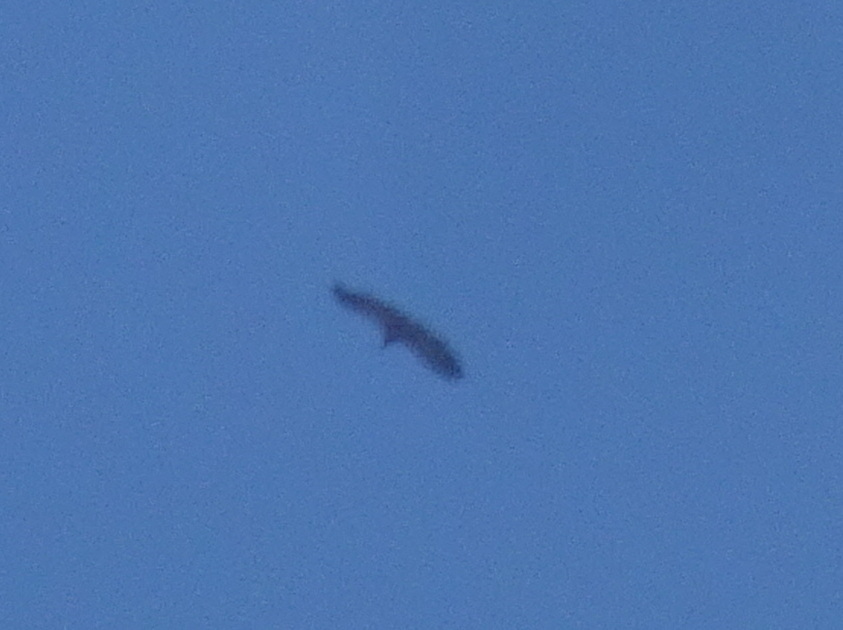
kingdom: Animalia
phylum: Chordata
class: Aves
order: Accipitriformes
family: Accipitridae
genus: Gyps
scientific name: Gyps fulvus
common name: Griffon vulture
